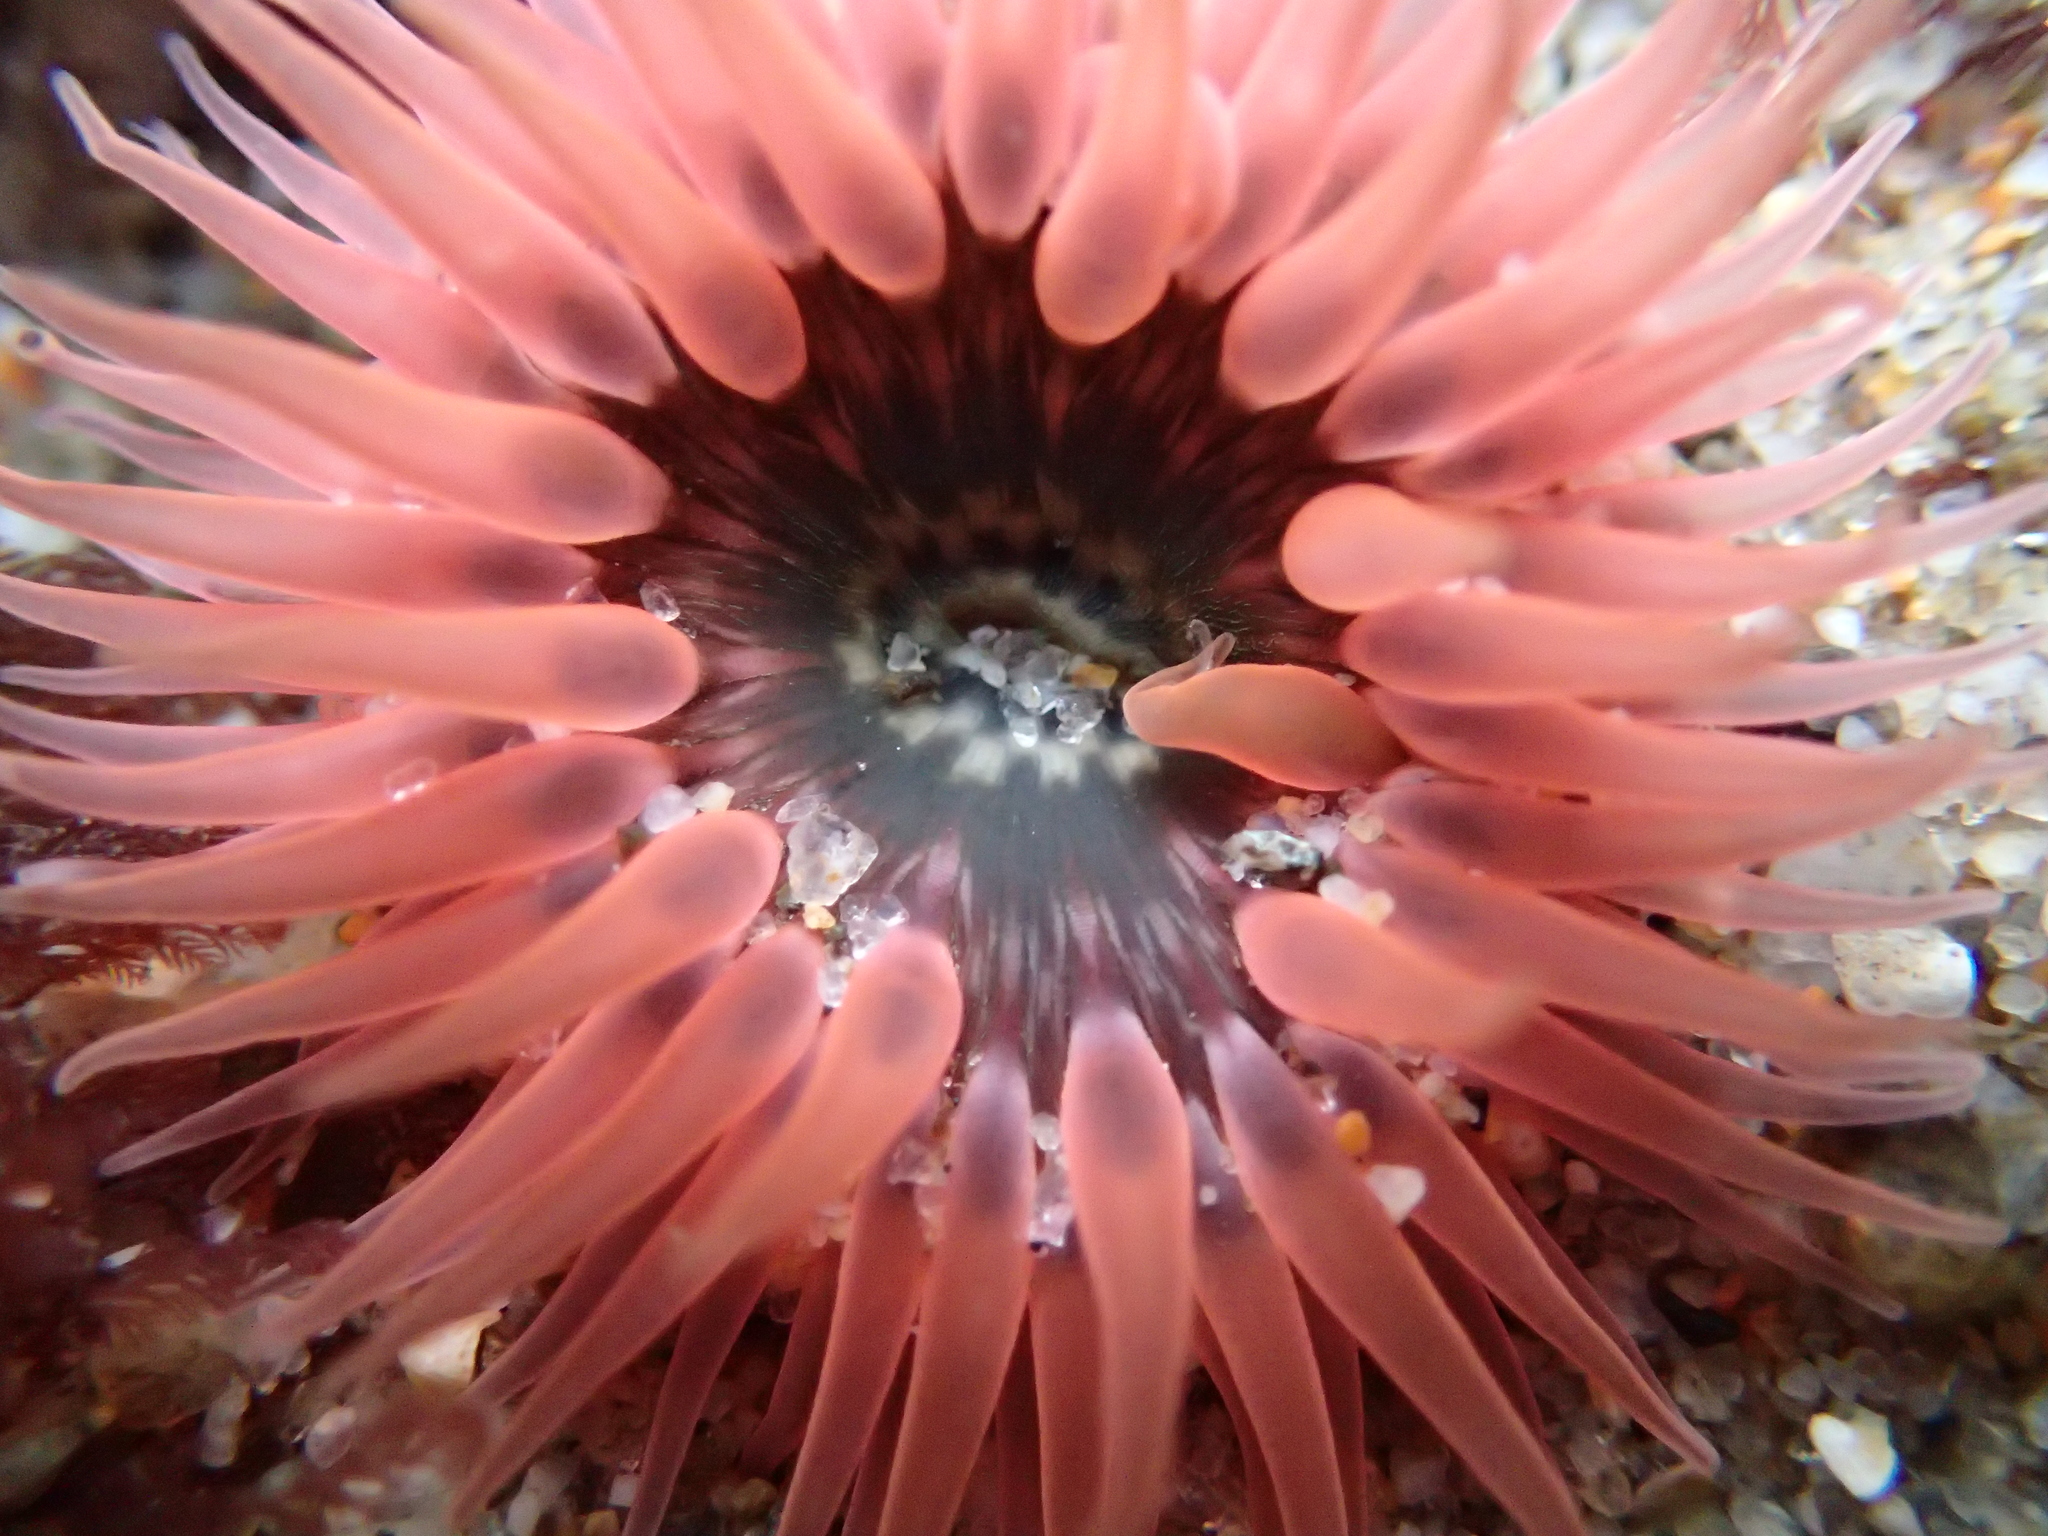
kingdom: Animalia
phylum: Cnidaria
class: Anthozoa
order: Actiniaria
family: Actiniidae
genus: Anthopleura
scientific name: Anthopleura artemisia
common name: Buried sea anemone
